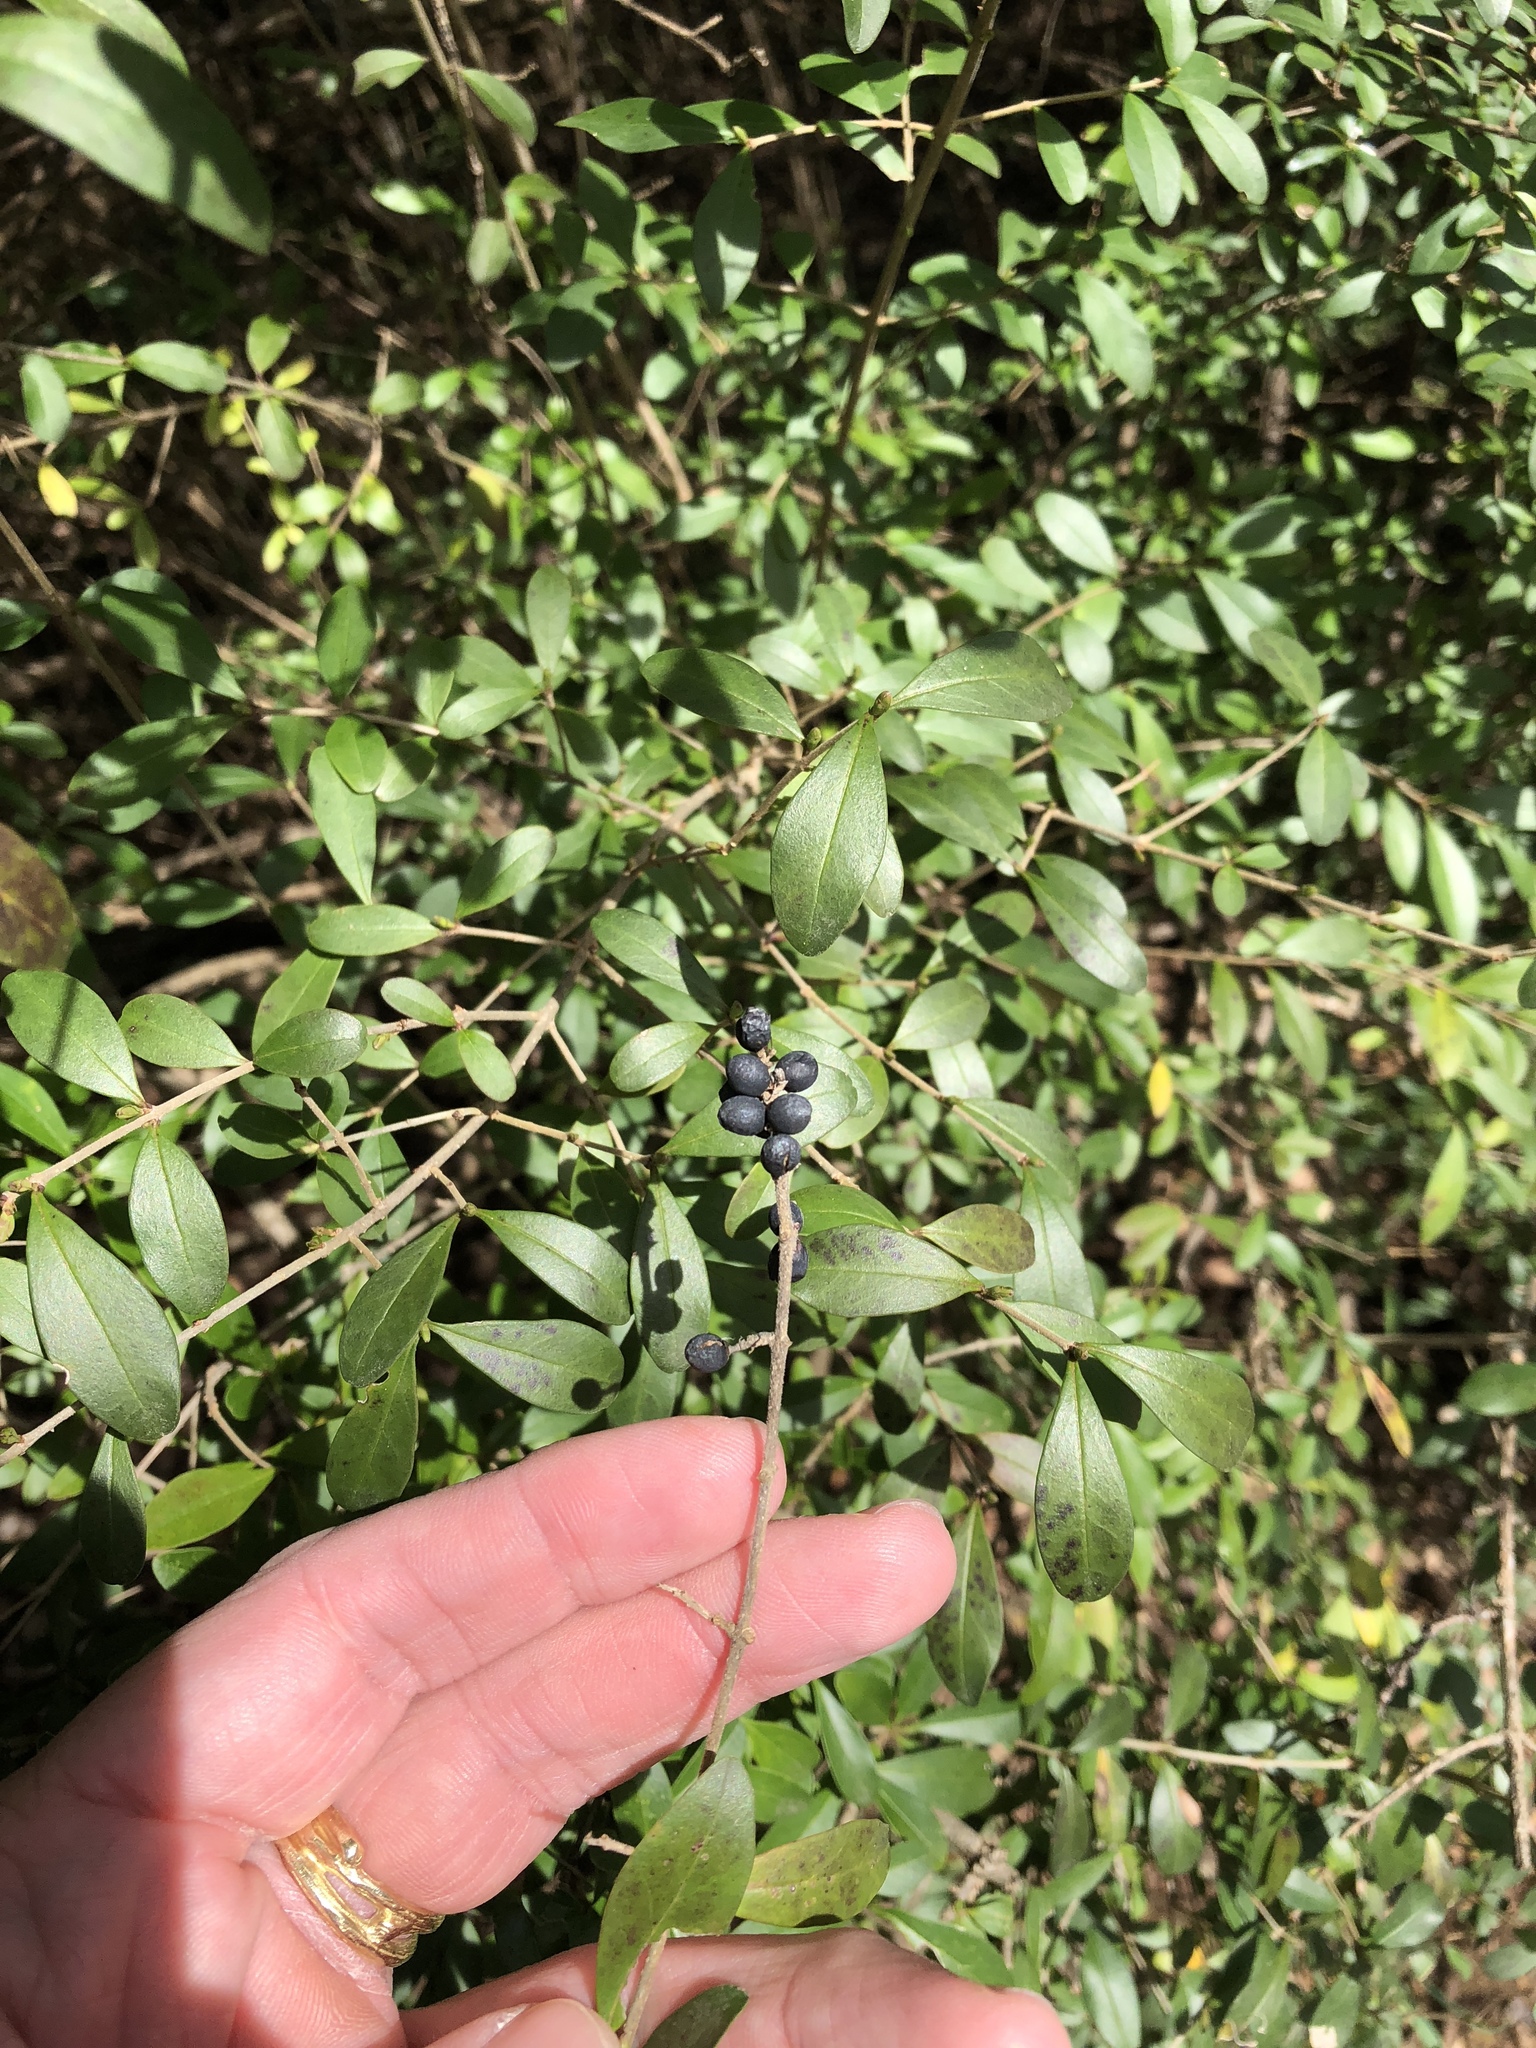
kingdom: Plantae
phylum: Tracheophyta
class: Magnoliopsida
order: Lamiales
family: Oleaceae
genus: Ligustrum
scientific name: Ligustrum quihoui
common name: Waxyleaf privet
